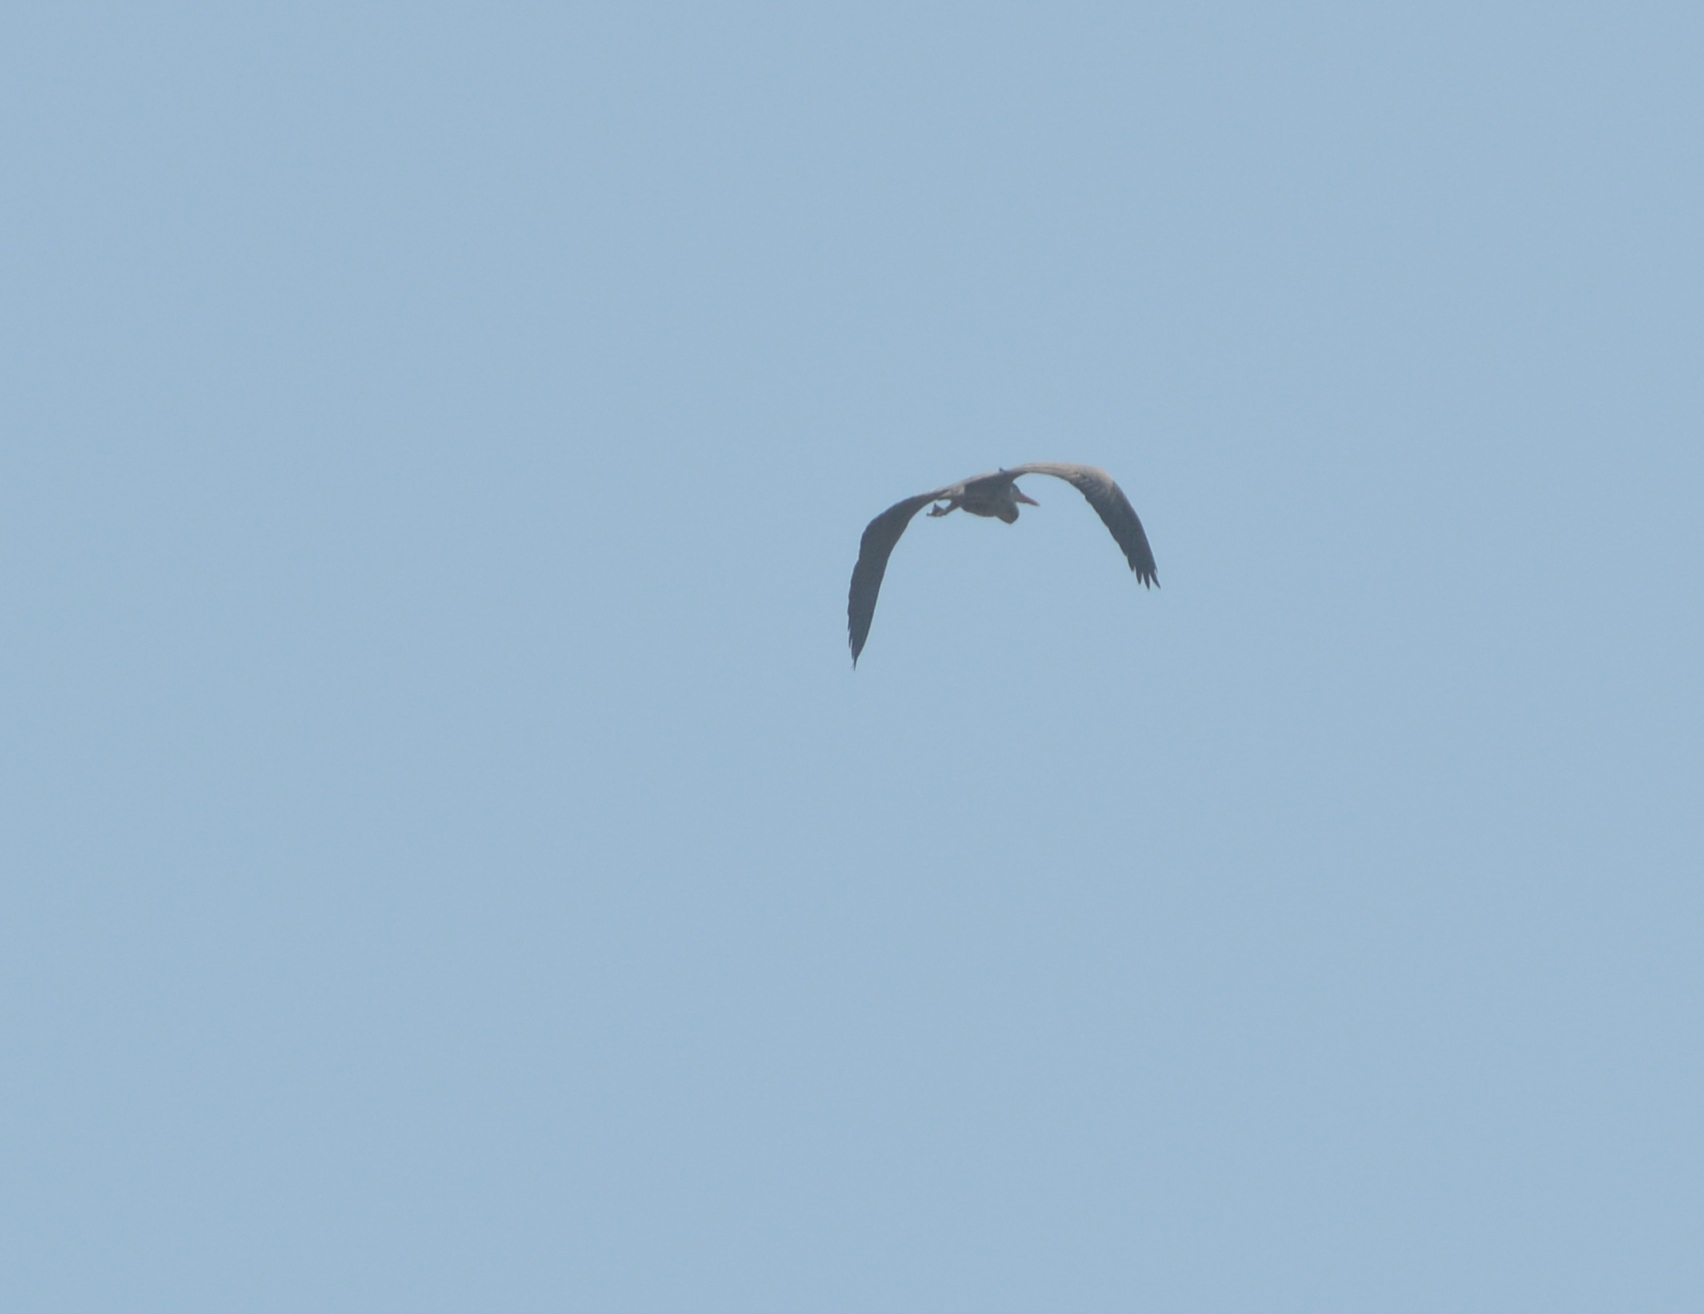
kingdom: Animalia
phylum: Chordata
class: Aves
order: Pelecaniformes
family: Ardeidae
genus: Ardea
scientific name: Ardea cinerea
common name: Grey heron
